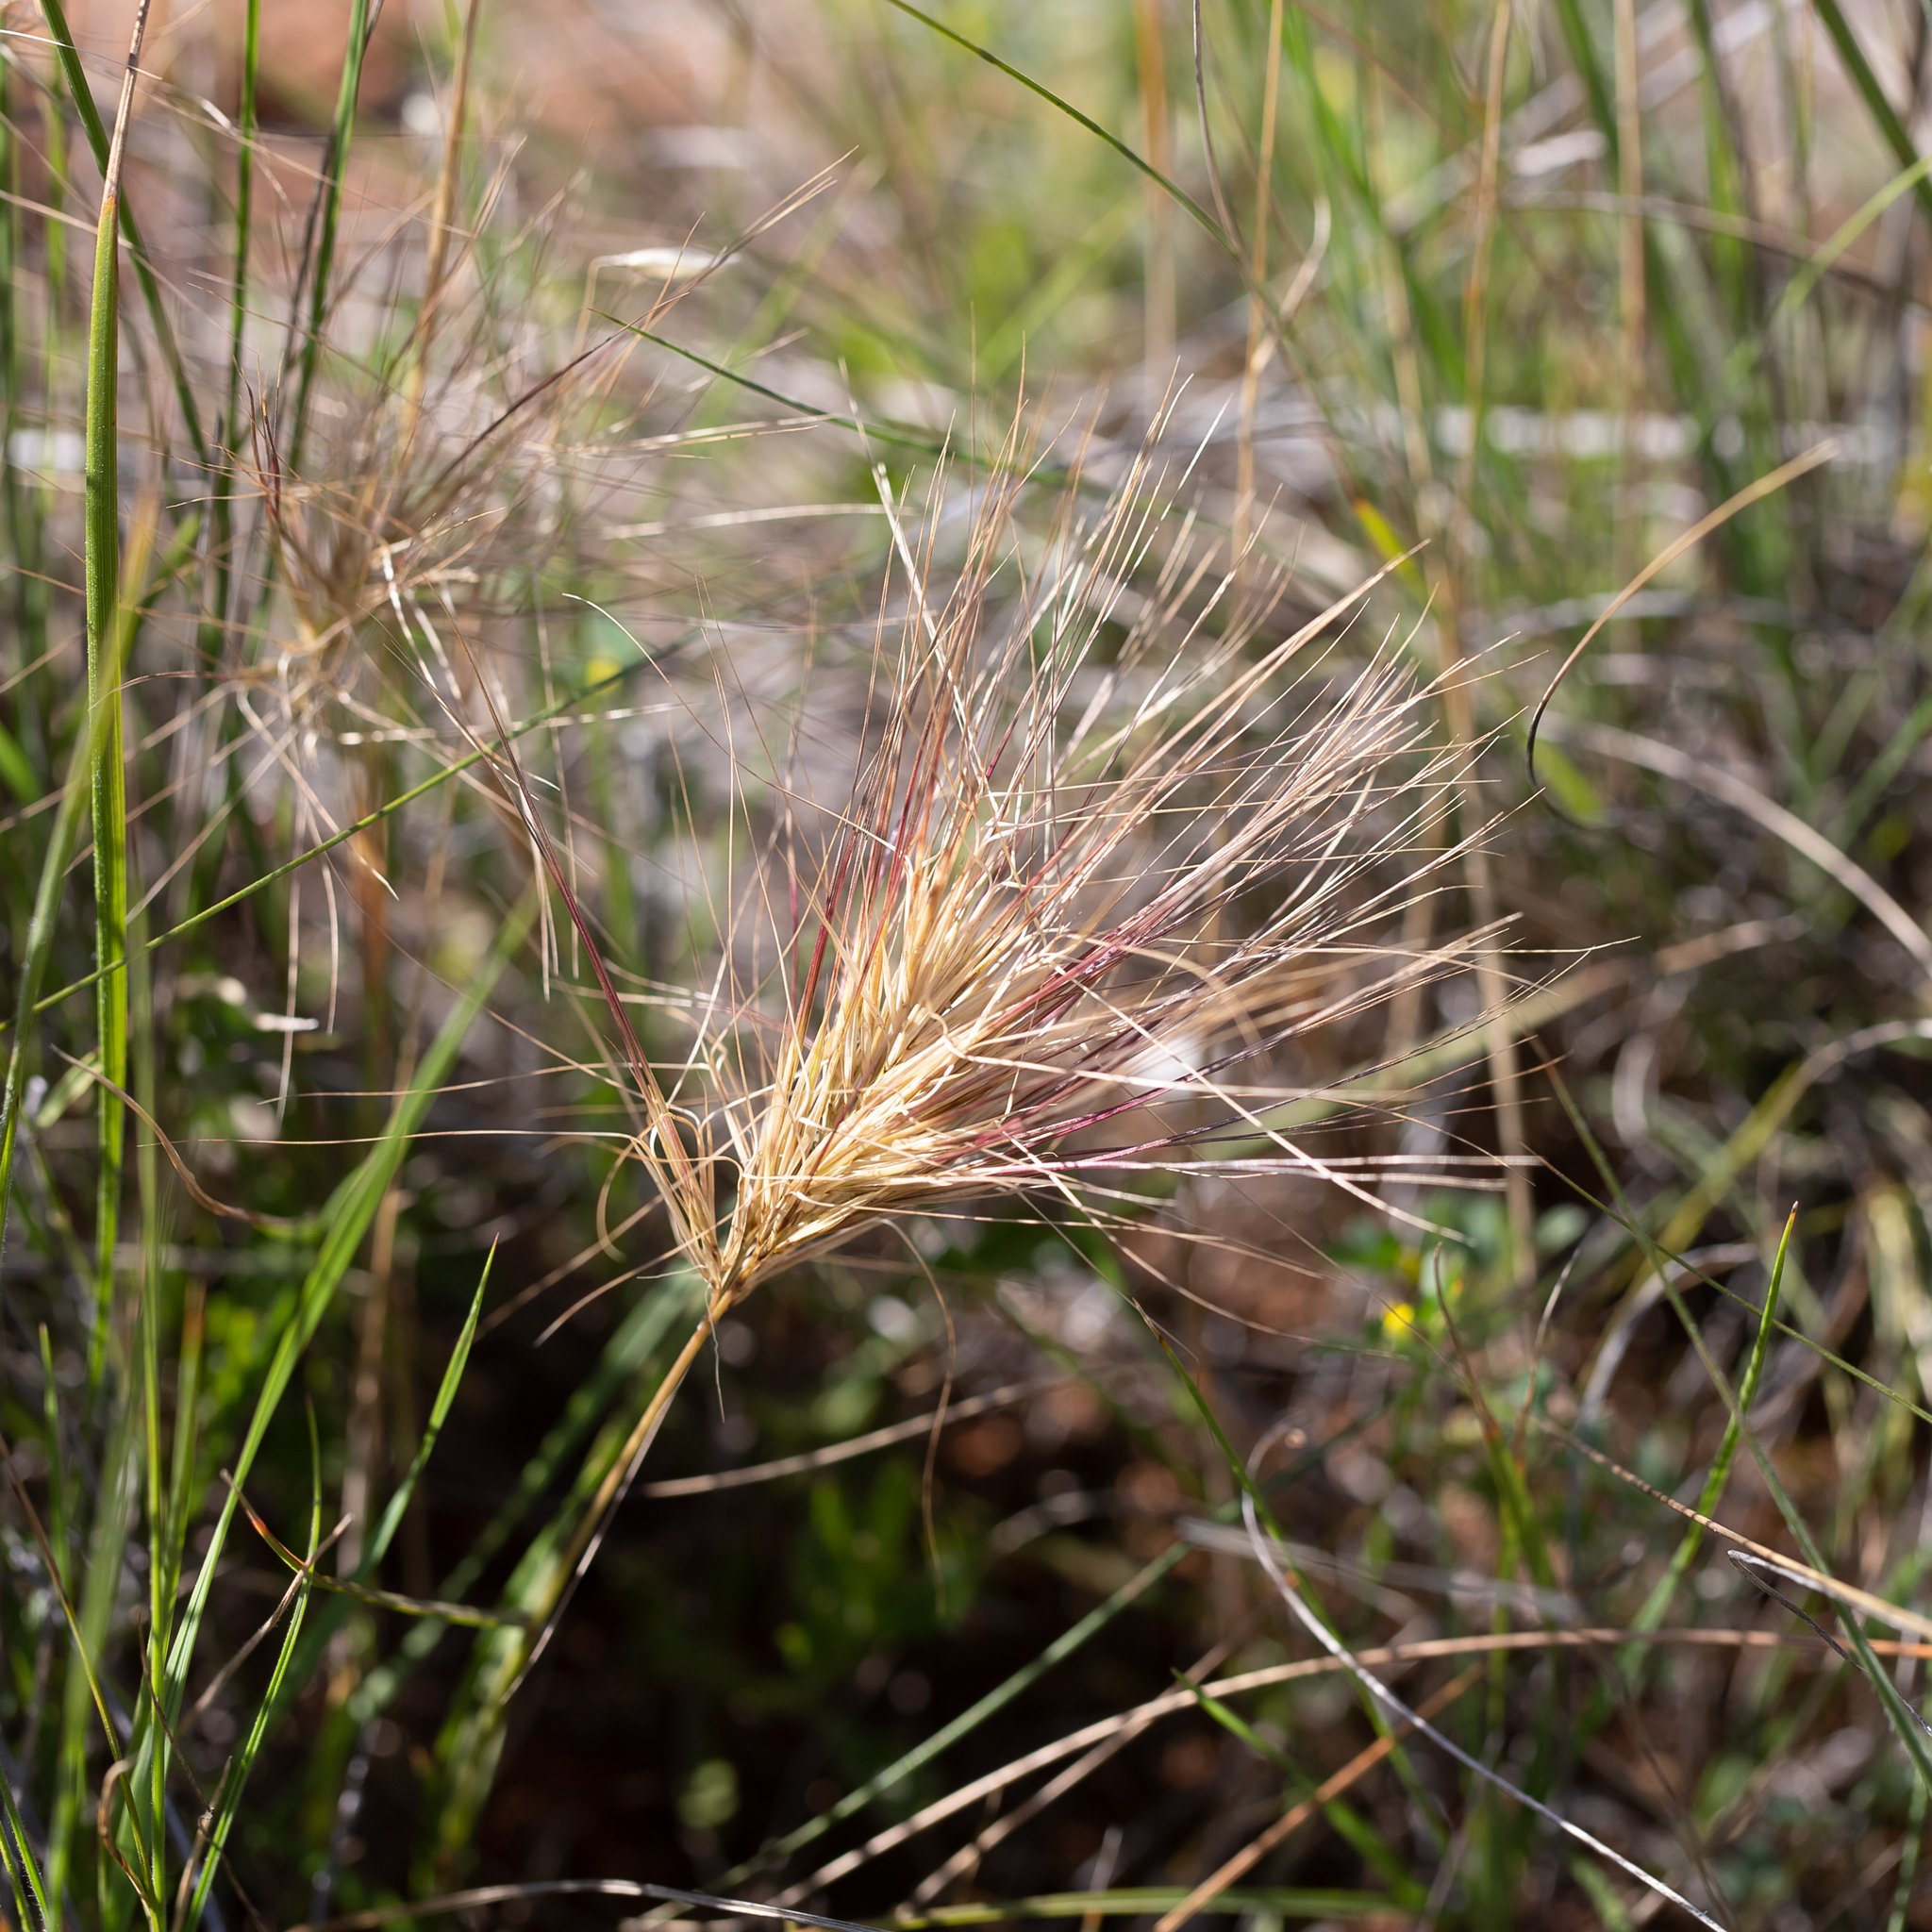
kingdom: Plantae
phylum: Tracheophyta
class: Liliopsida
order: Poales
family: Poaceae
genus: Aristida
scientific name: Aristida behriana
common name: Long-awn wire grass
